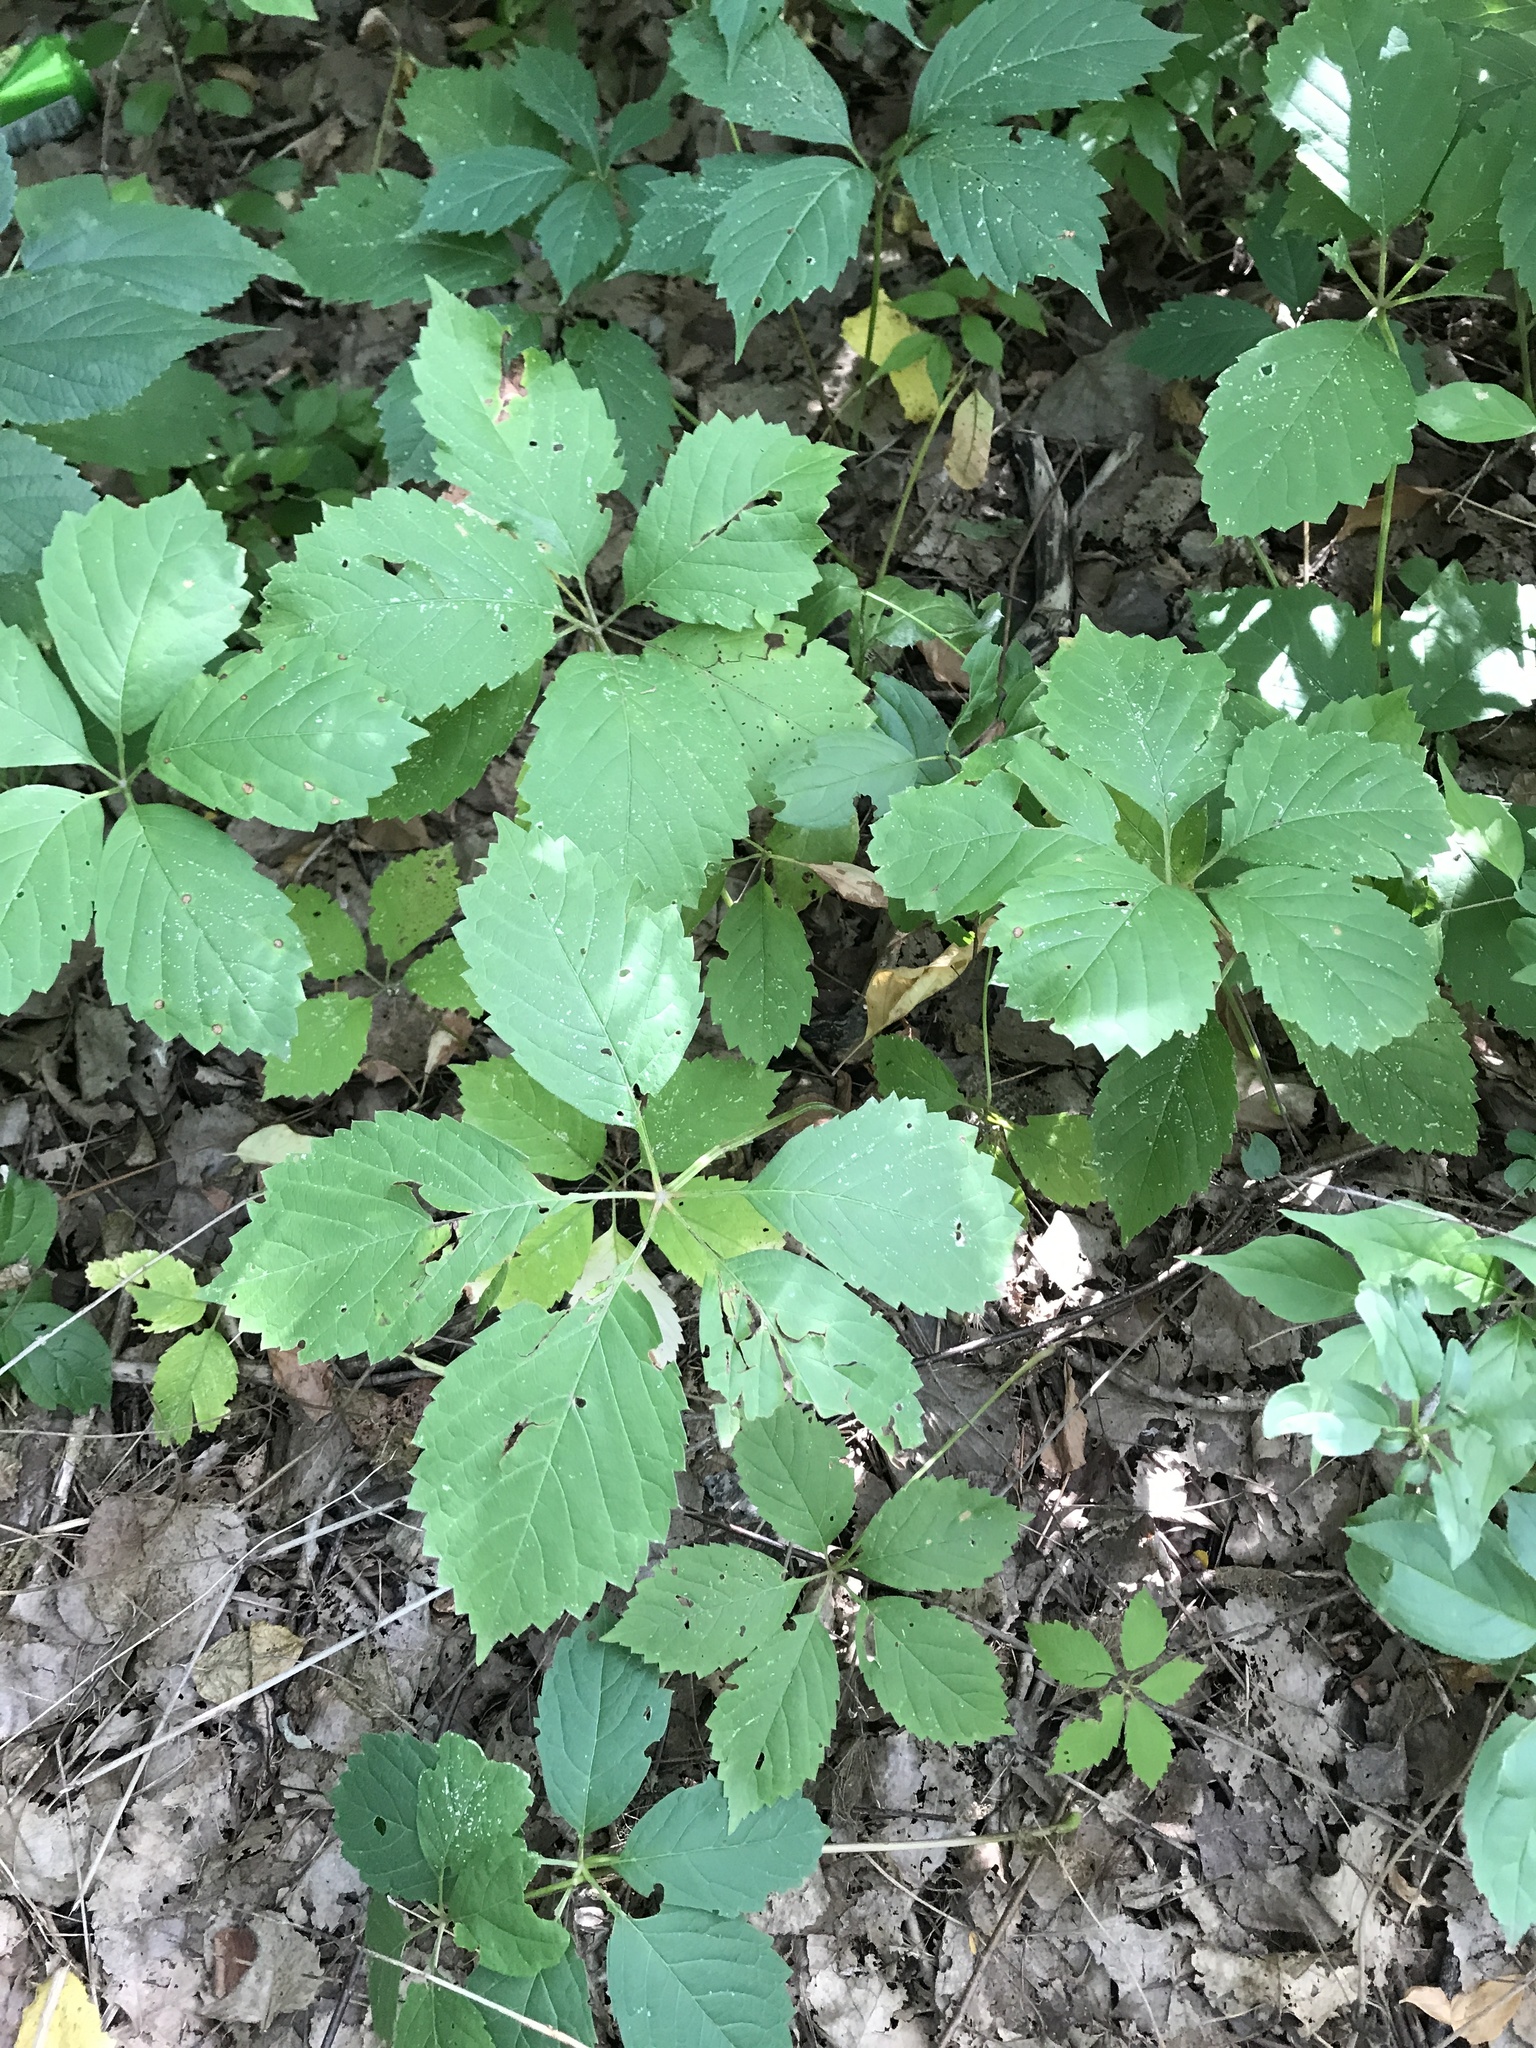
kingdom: Plantae
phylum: Tracheophyta
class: Magnoliopsida
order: Vitales
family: Vitaceae
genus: Parthenocissus
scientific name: Parthenocissus quinquefolia
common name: Virginia-creeper
